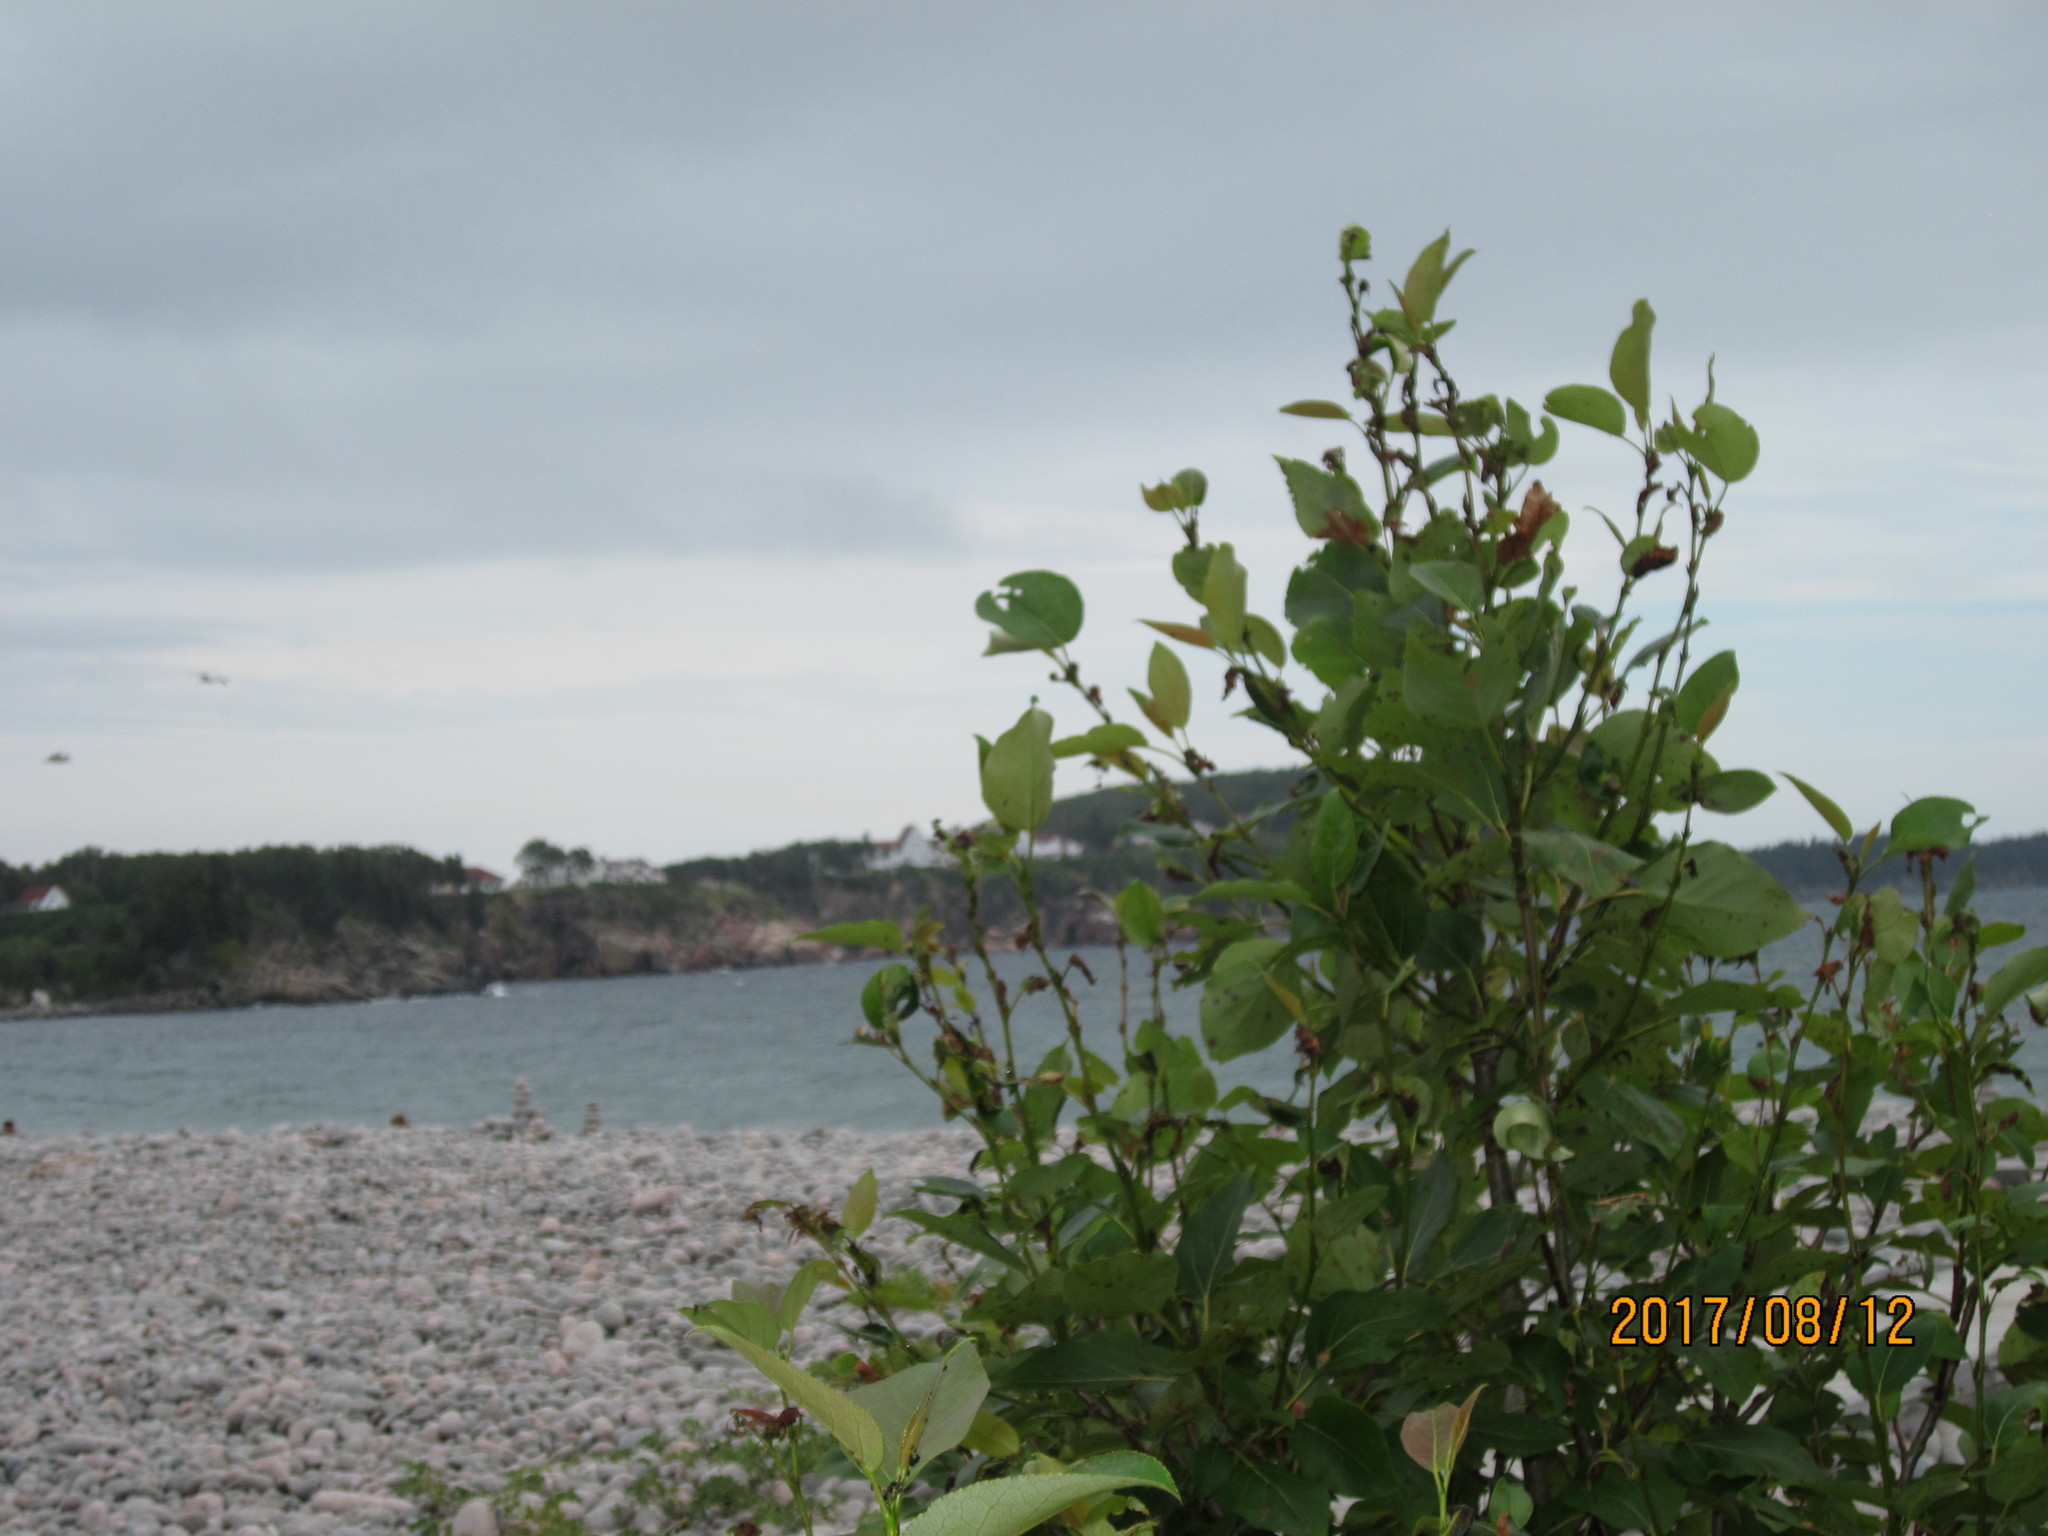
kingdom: Plantae
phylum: Tracheophyta
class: Magnoliopsida
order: Malpighiales
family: Salicaceae
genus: Populus
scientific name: Populus balsamifera
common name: Balsam poplar
